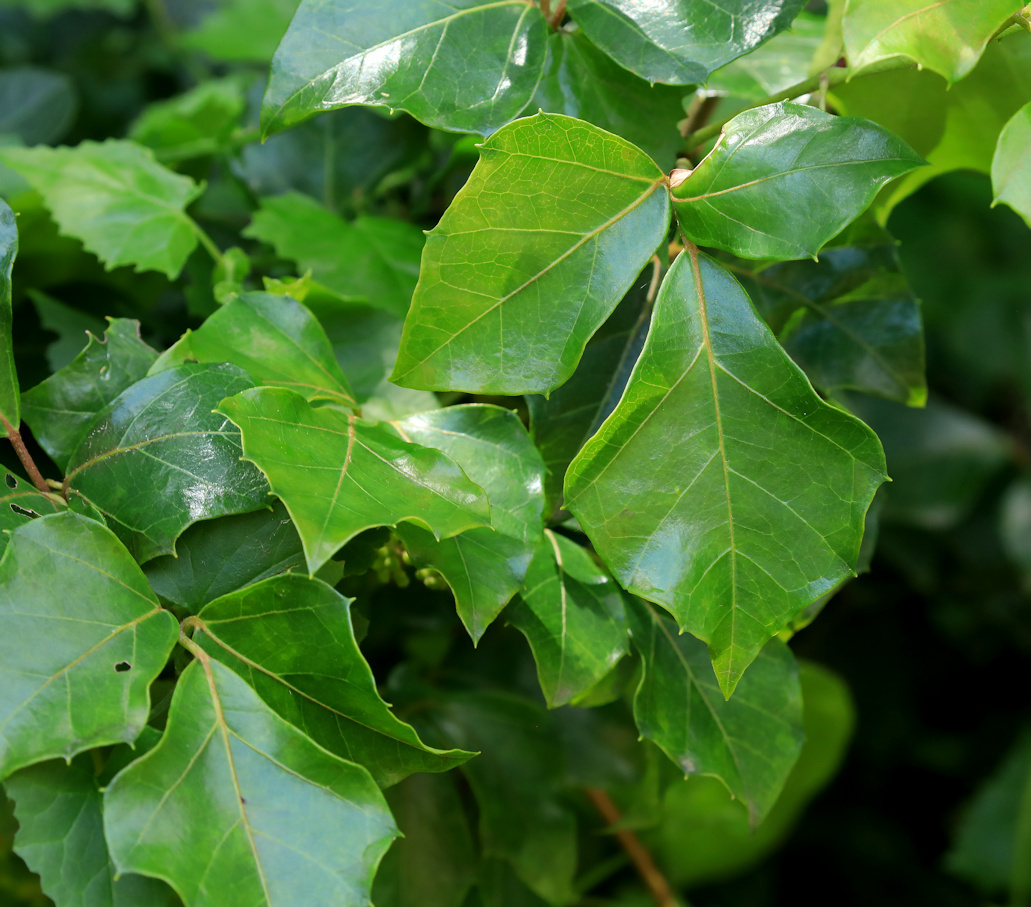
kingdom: Plantae
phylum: Tracheophyta
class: Magnoliopsida
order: Vitales
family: Vitaceae
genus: Rhoicissus
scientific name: Rhoicissus rhomboidea
